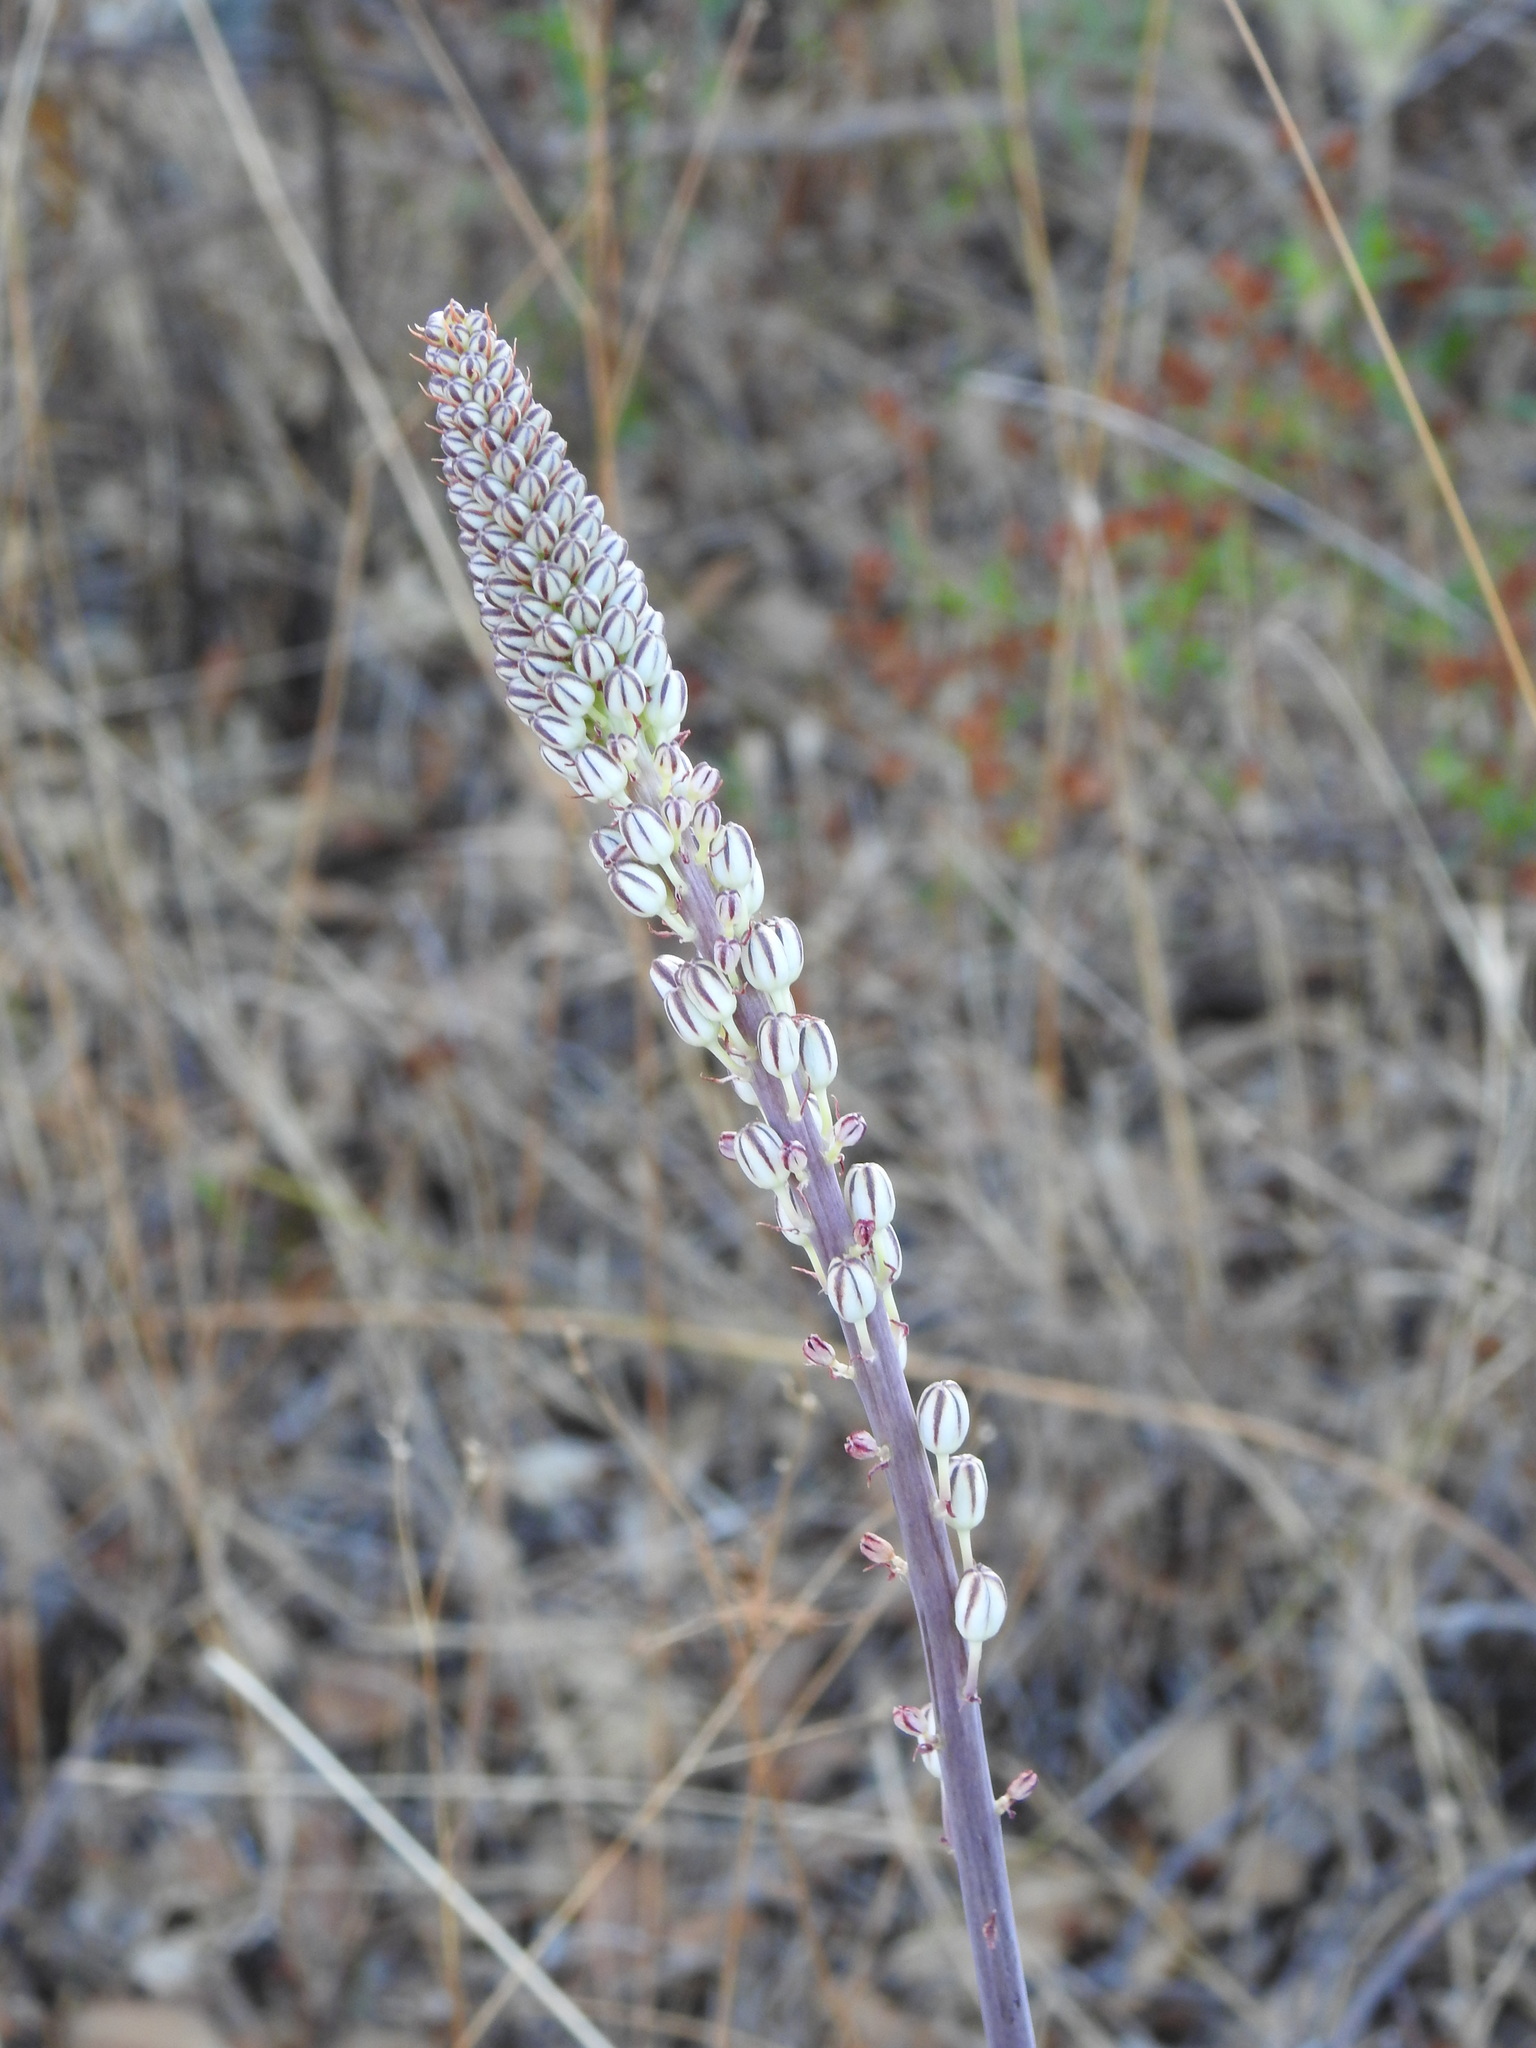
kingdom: Plantae
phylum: Tracheophyta
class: Liliopsida
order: Asparagales
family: Asparagaceae
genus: Drimia
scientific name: Drimia maritima
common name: Maritime squill
